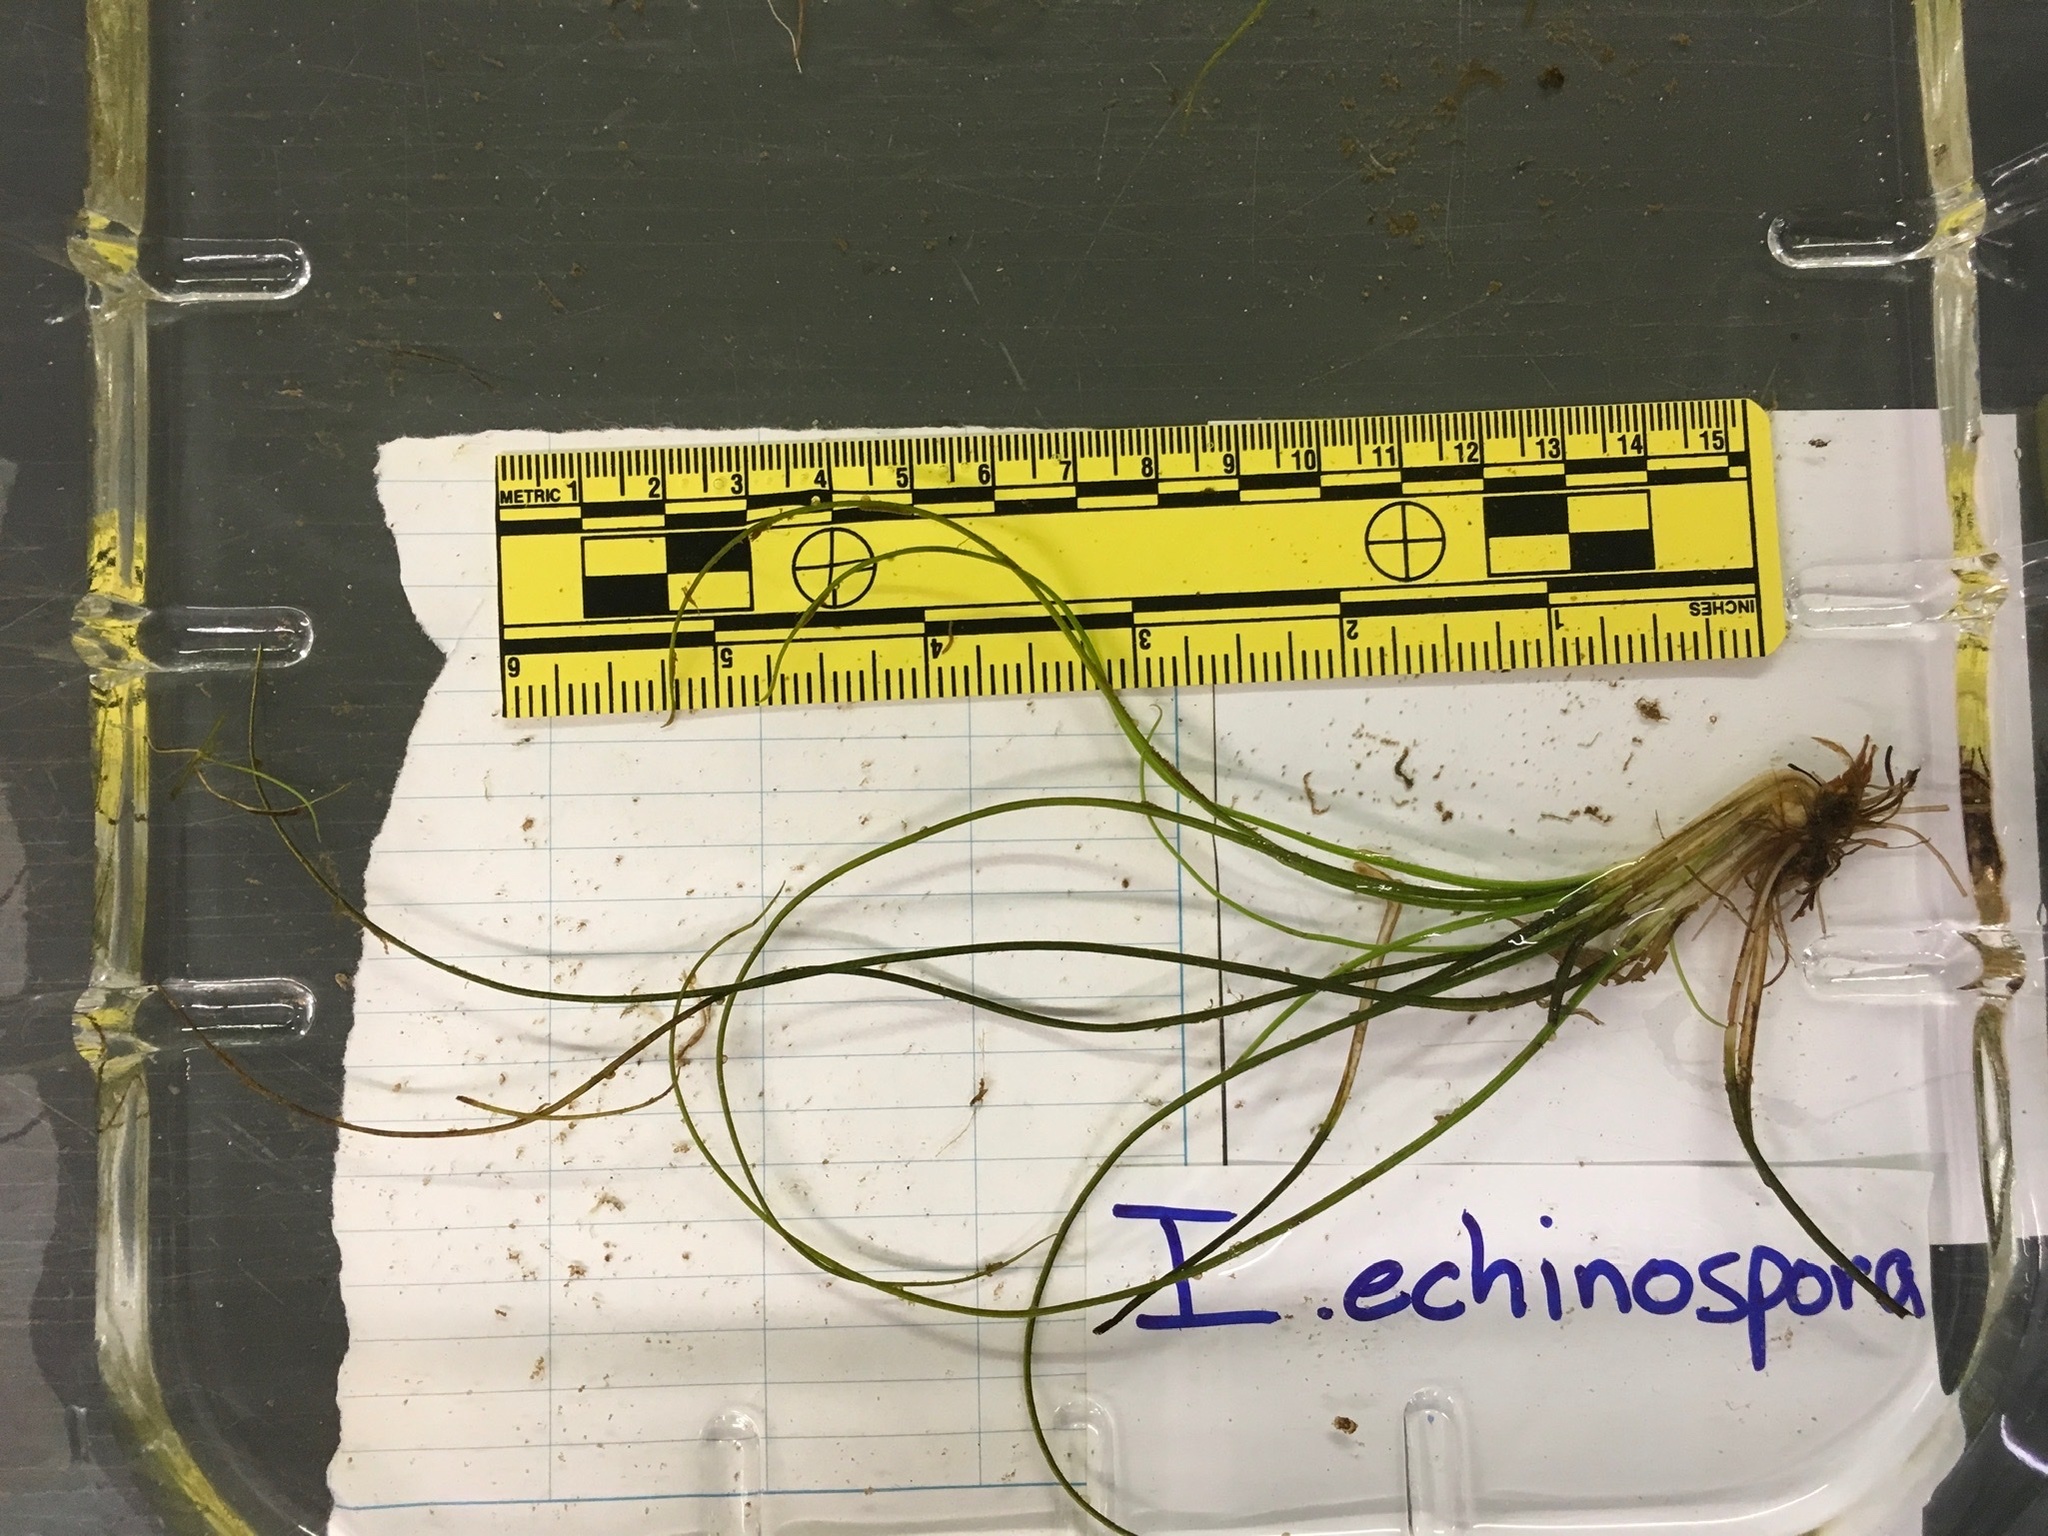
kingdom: Plantae
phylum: Tracheophyta
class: Lycopodiopsida
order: Isoetales
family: Isoetaceae
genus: Isoetes
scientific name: Isoetes echinospora
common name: Spring quillwort
